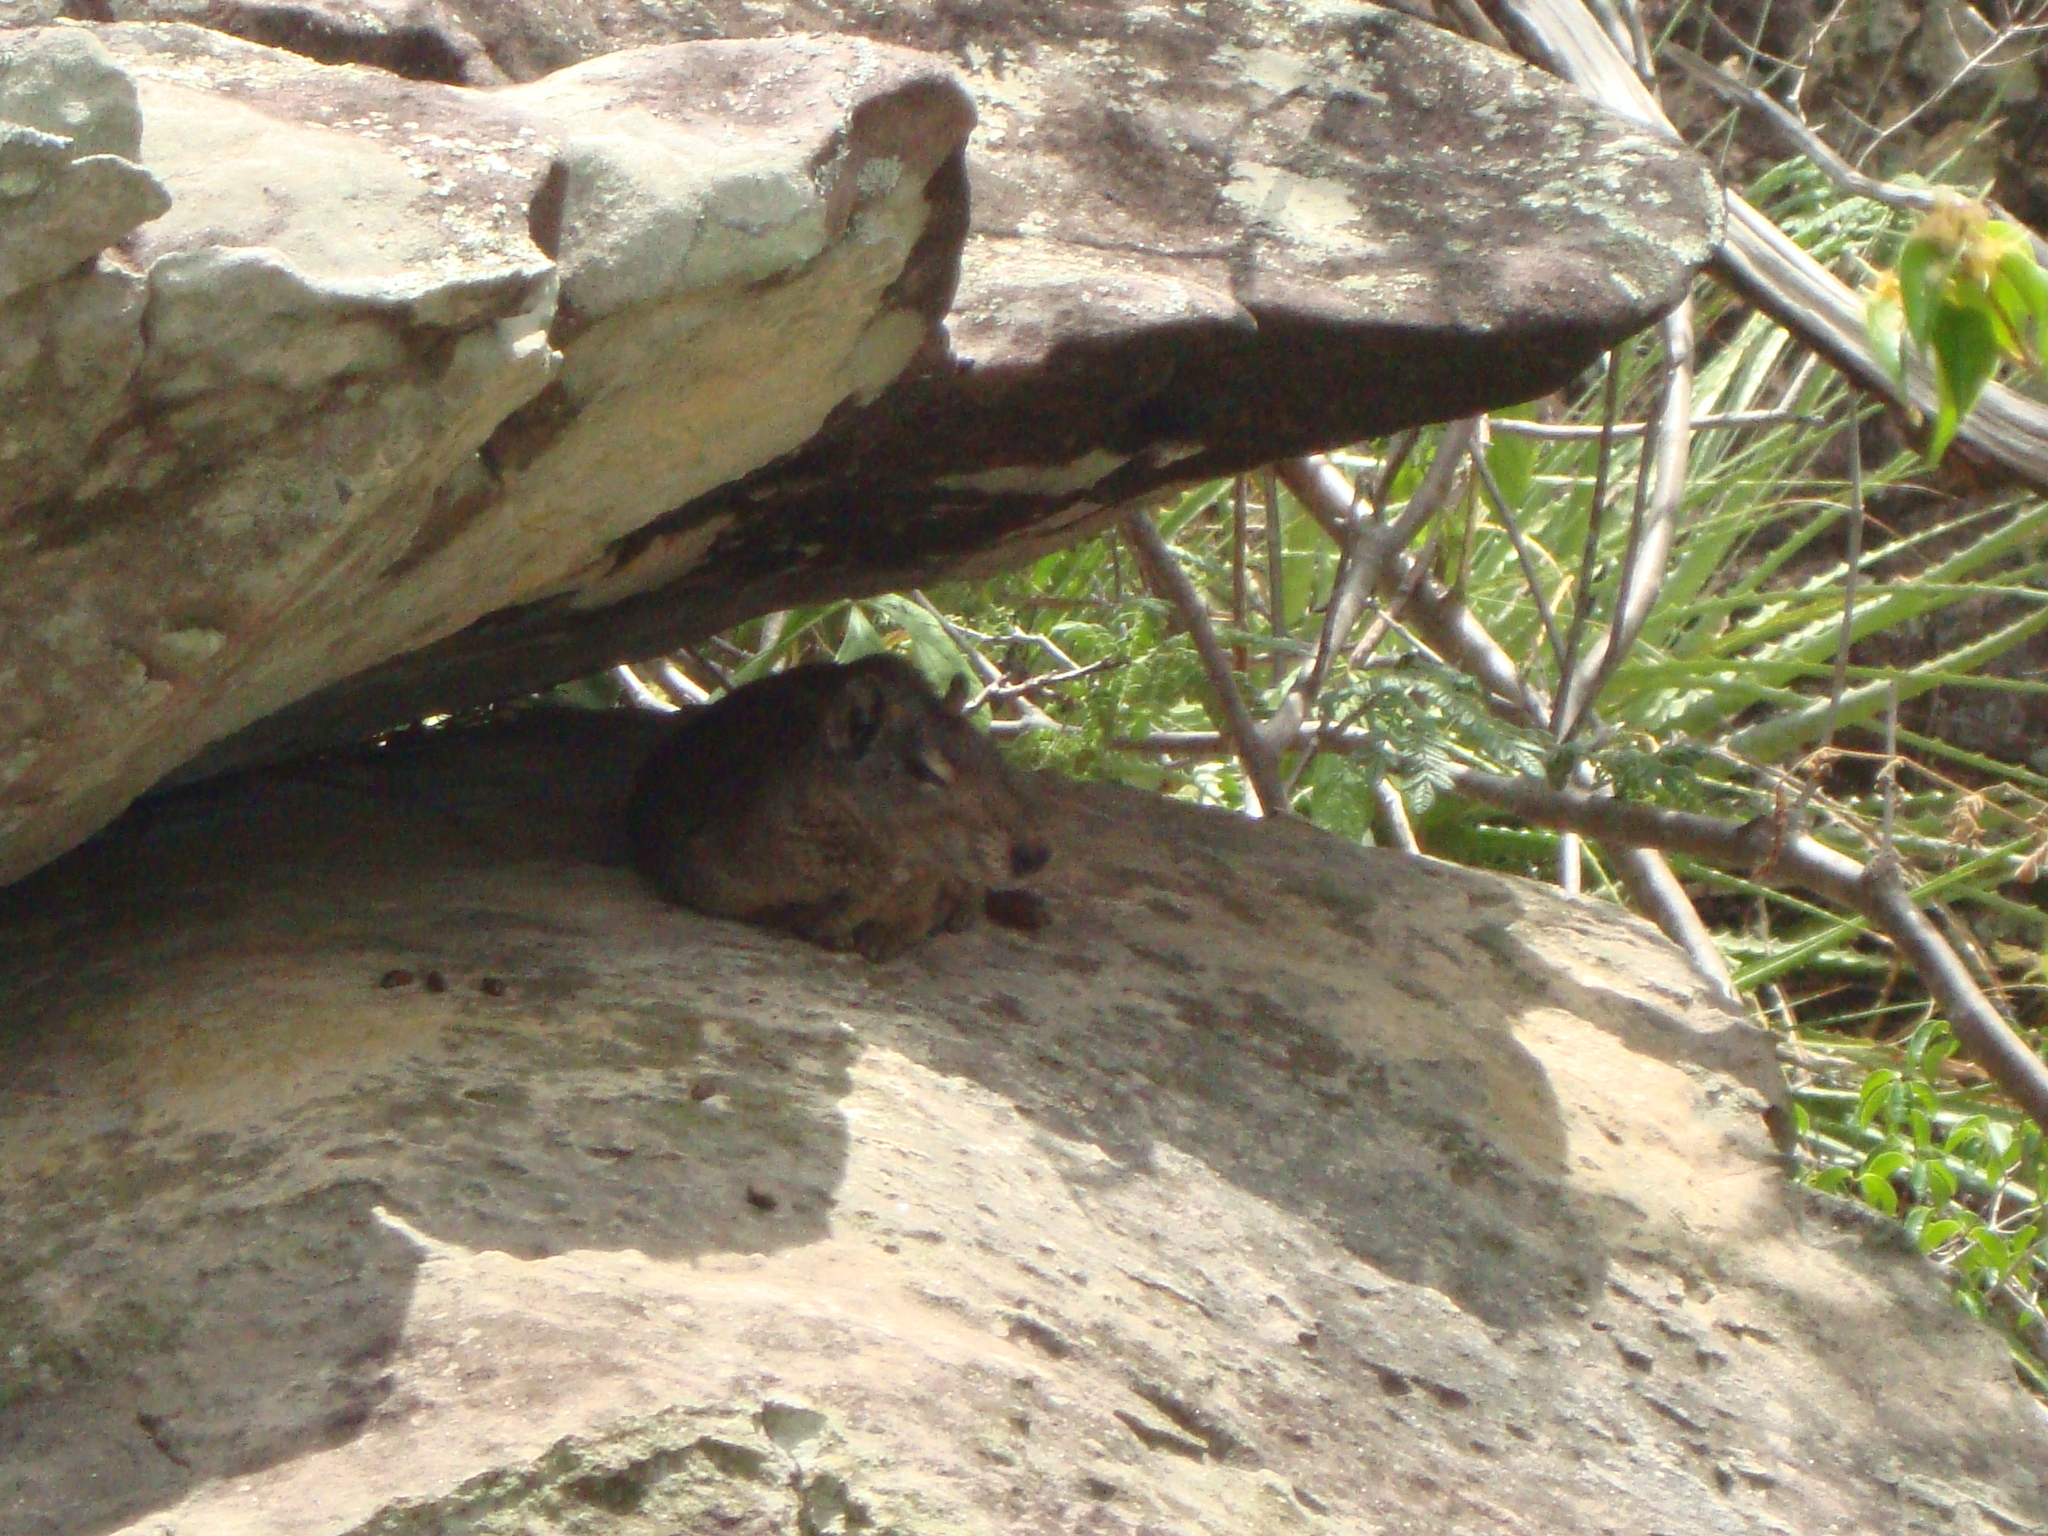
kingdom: Animalia
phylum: Chordata
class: Mammalia
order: Rodentia
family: Caviidae
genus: Kerodon
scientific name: Kerodon rupestris
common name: Rock cavy
